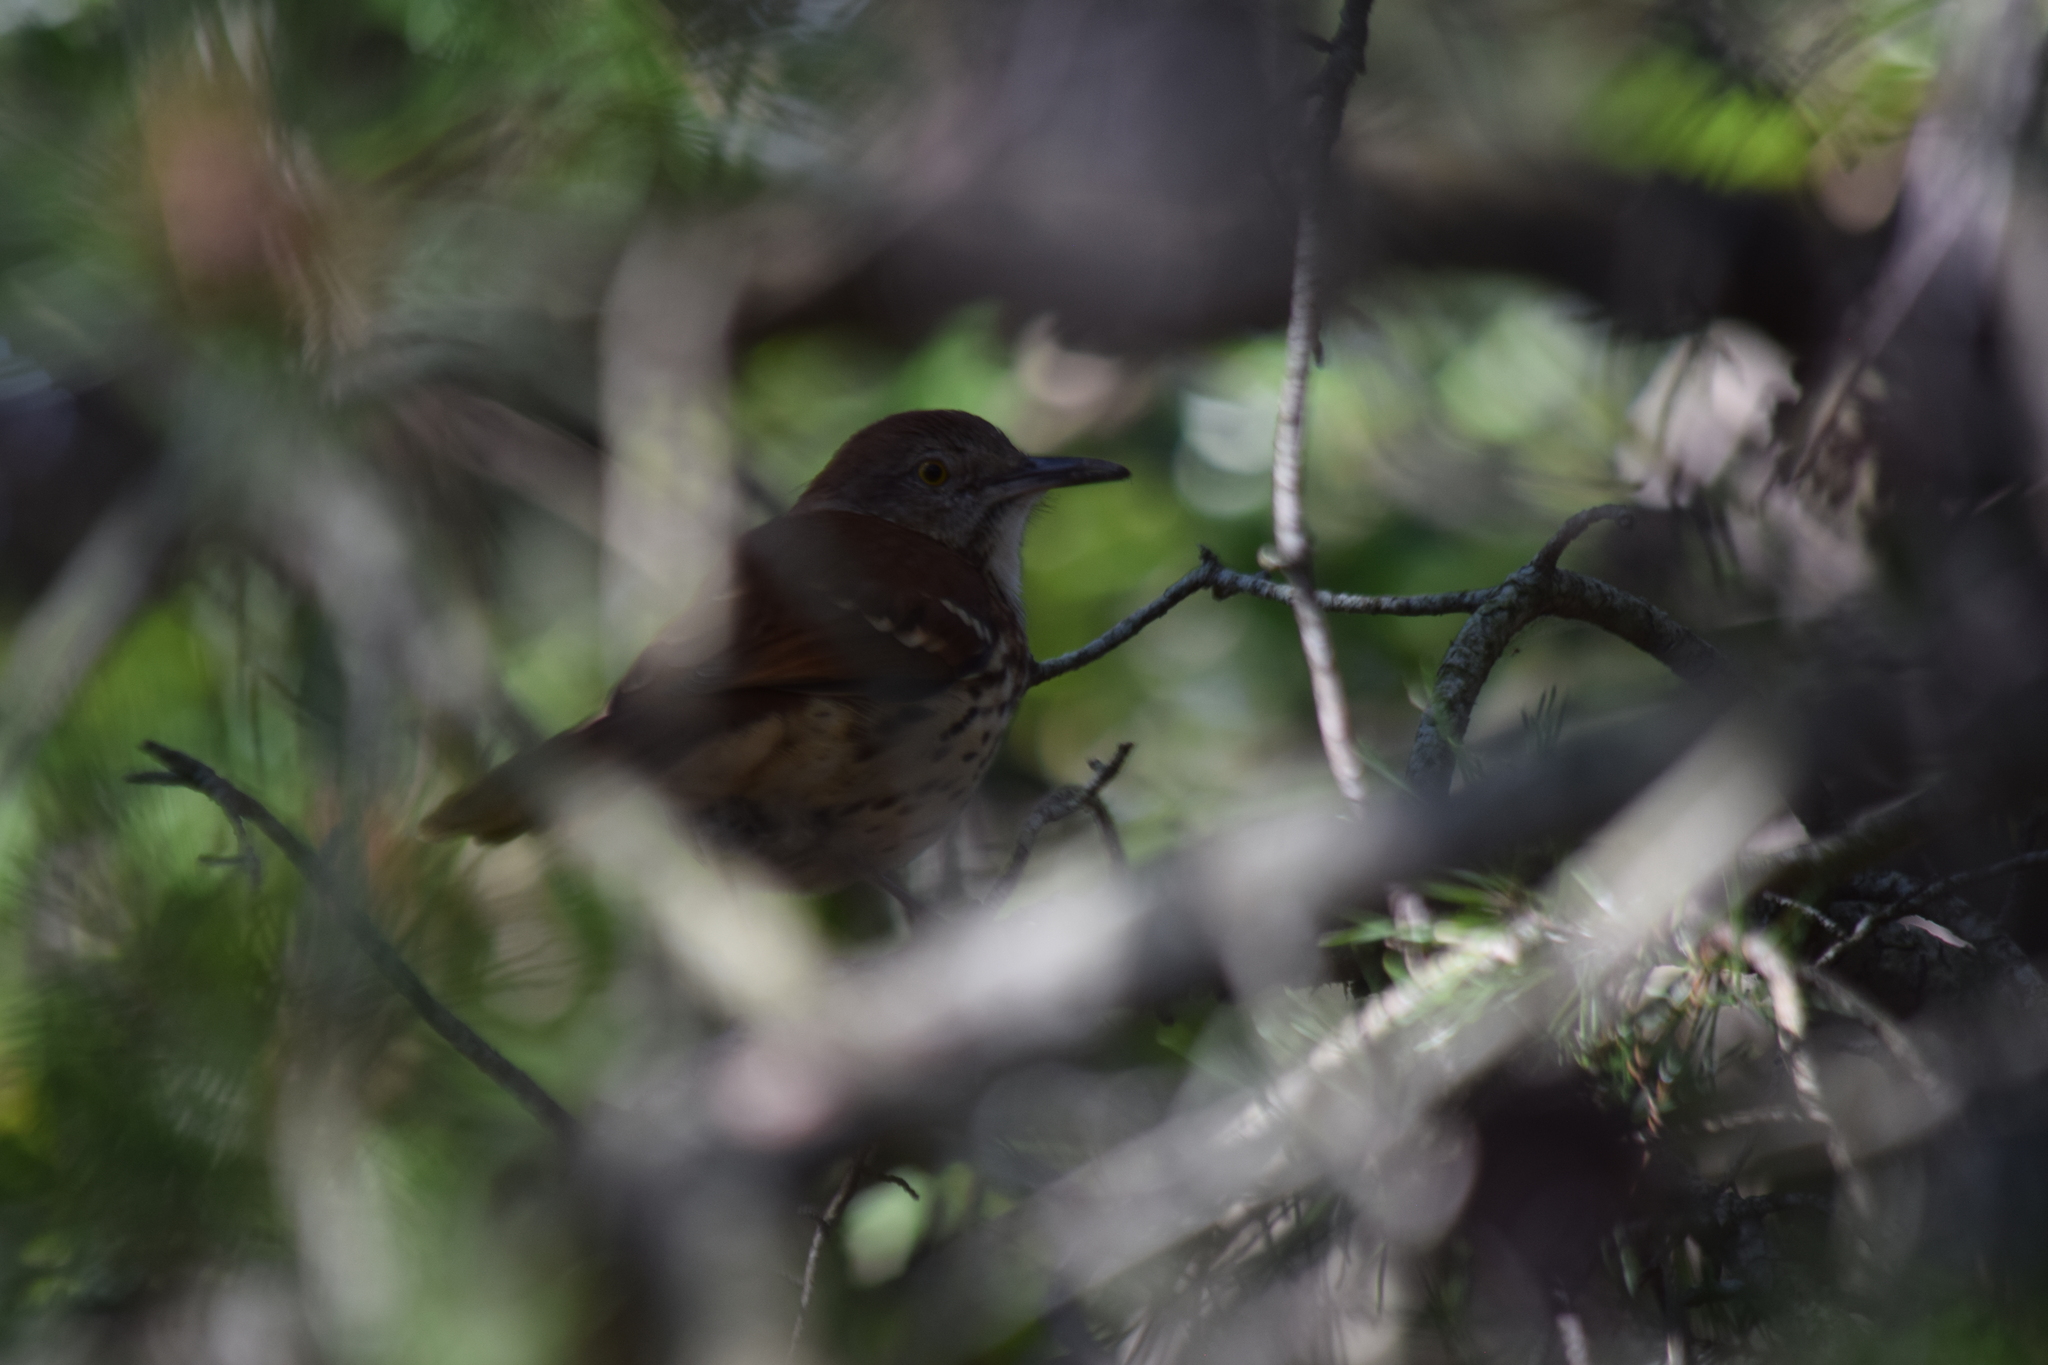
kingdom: Animalia
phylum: Chordata
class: Aves
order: Passeriformes
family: Mimidae
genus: Toxostoma
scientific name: Toxostoma rufum
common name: Brown thrasher
